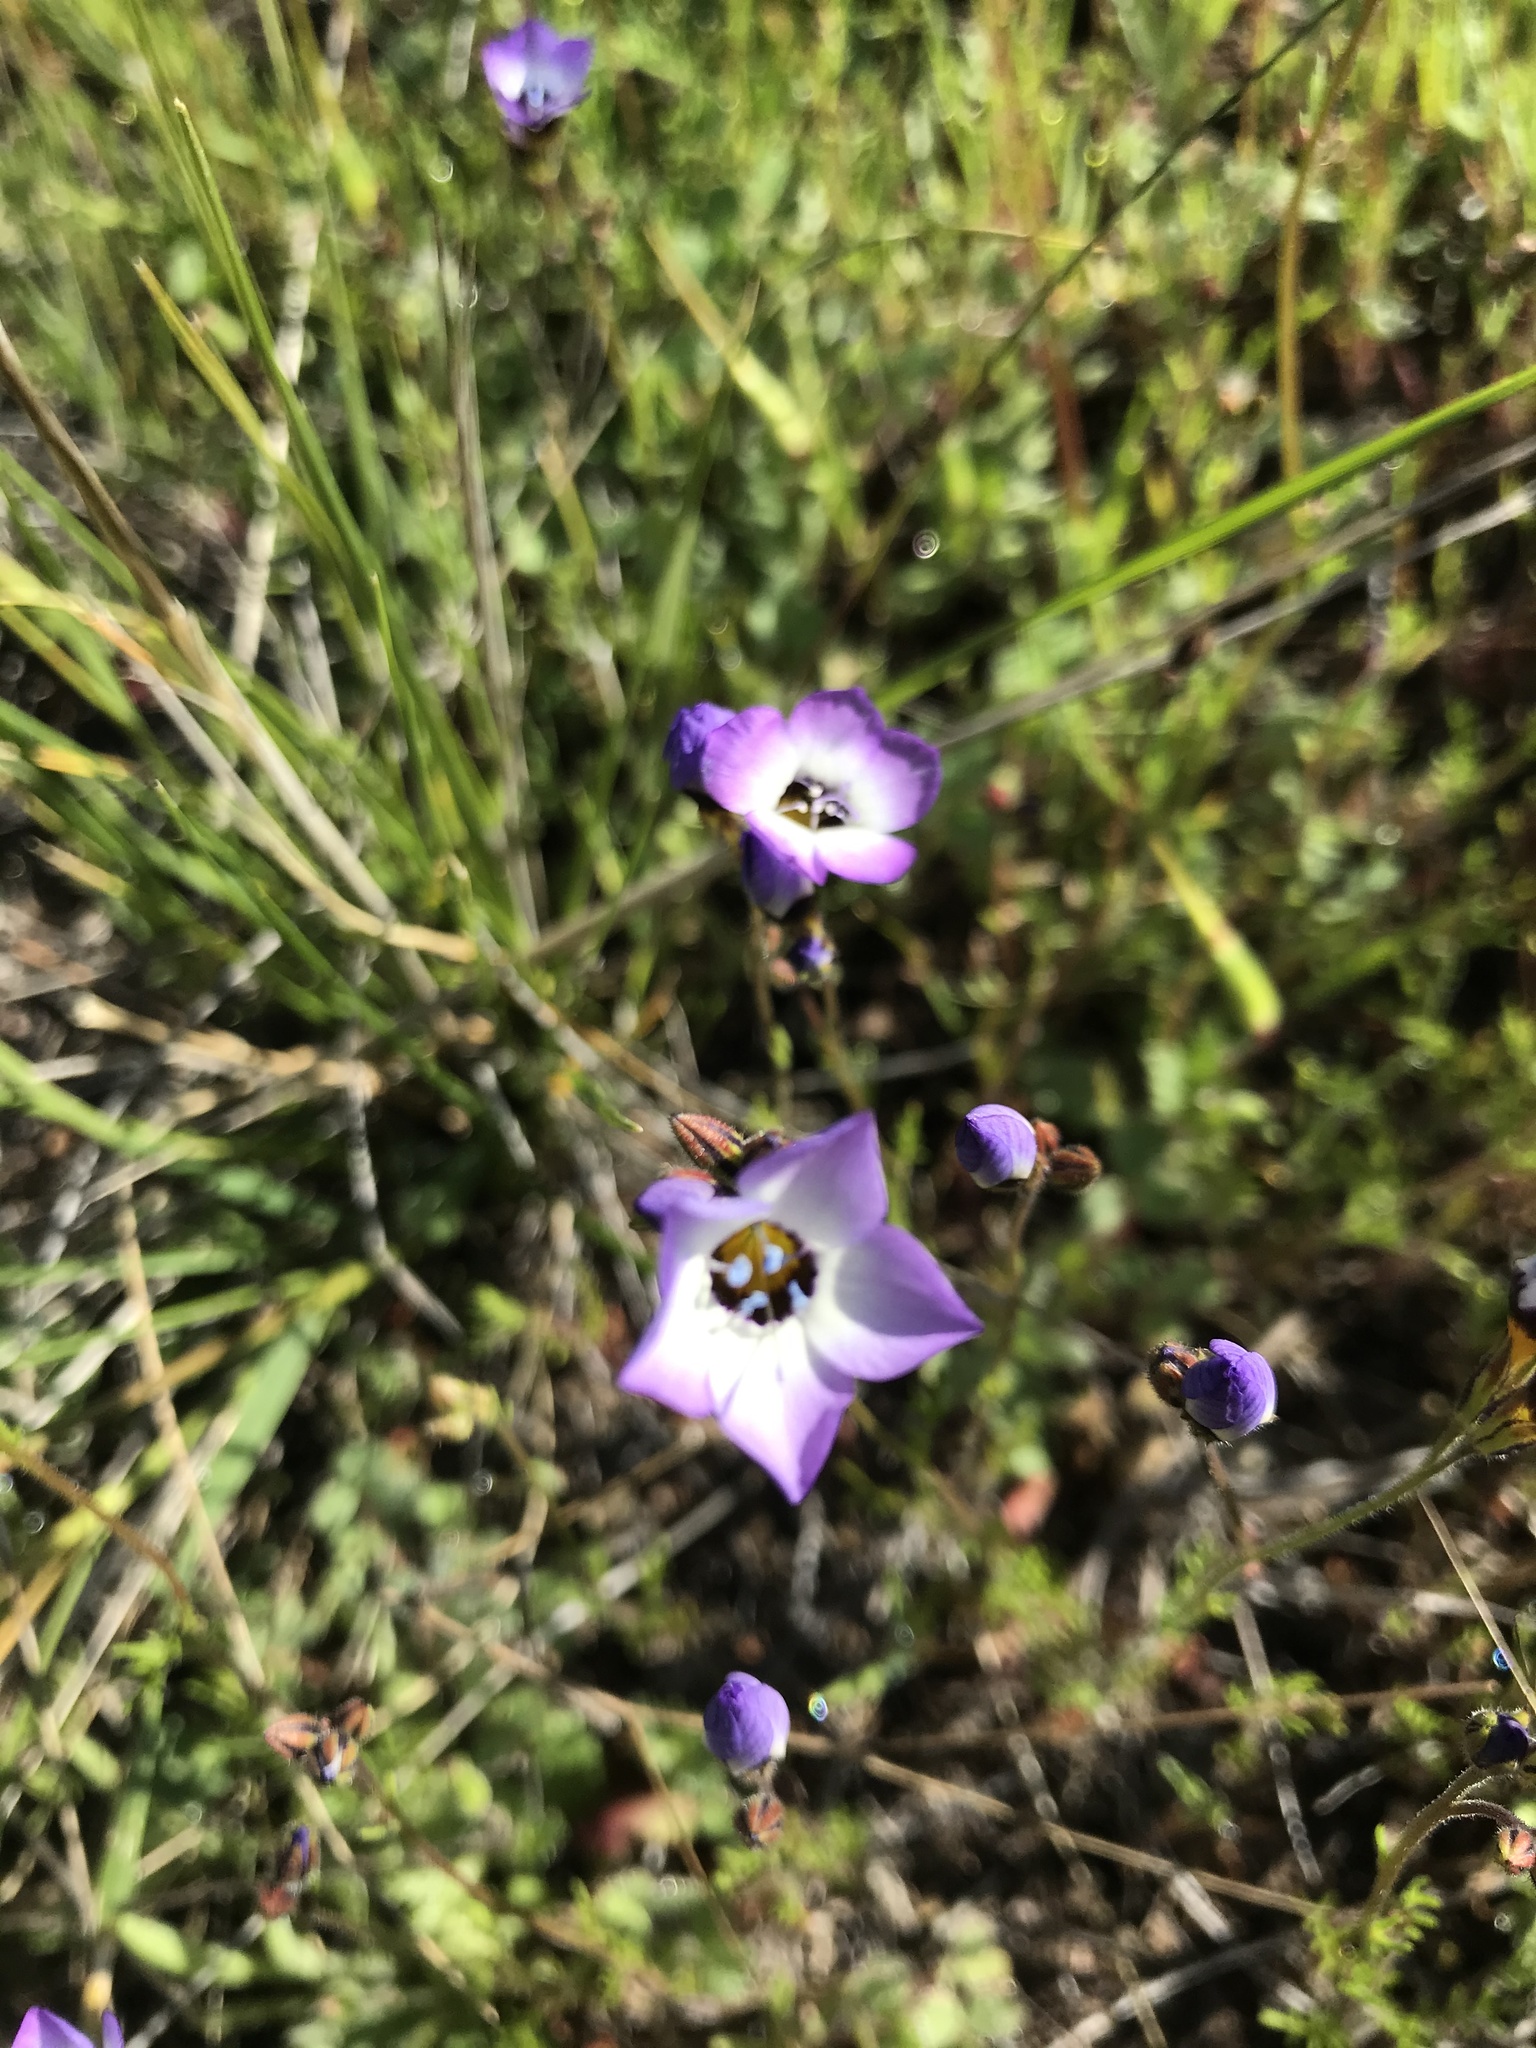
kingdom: Plantae
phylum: Tracheophyta
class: Magnoliopsida
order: Ericales
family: Polemoniaceae
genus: Gilia
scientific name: Gilia tricolor
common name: Bird's-eyes
